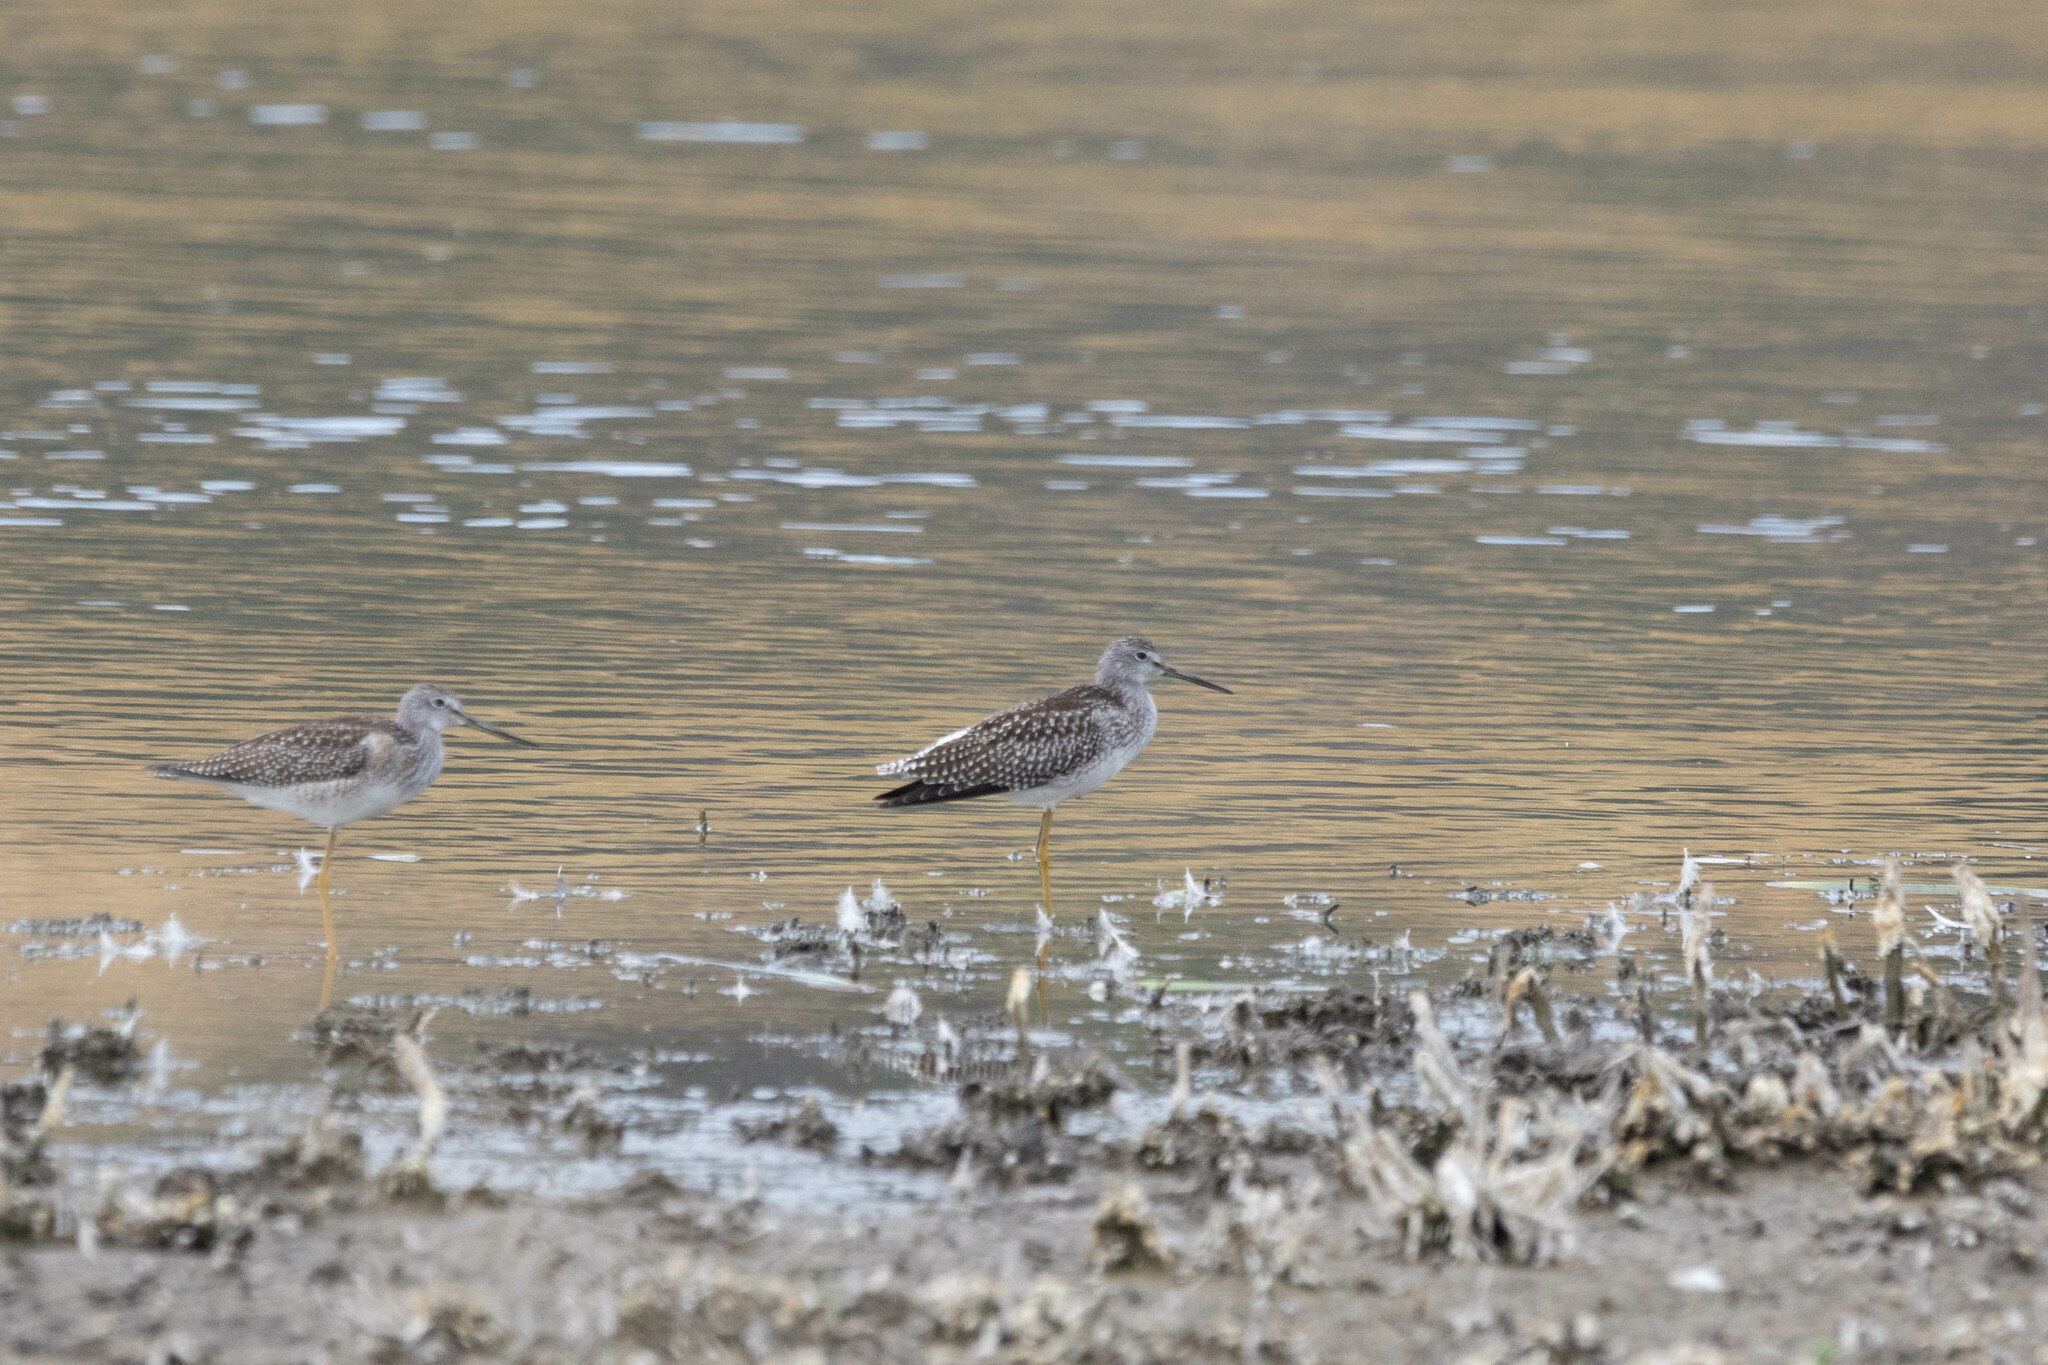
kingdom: Animalia
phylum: Chordata
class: Aves
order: Charadriiformes
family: Scolopacidae
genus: Tringa
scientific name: Tringa melanoleuca
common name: Greater yellowlegs
